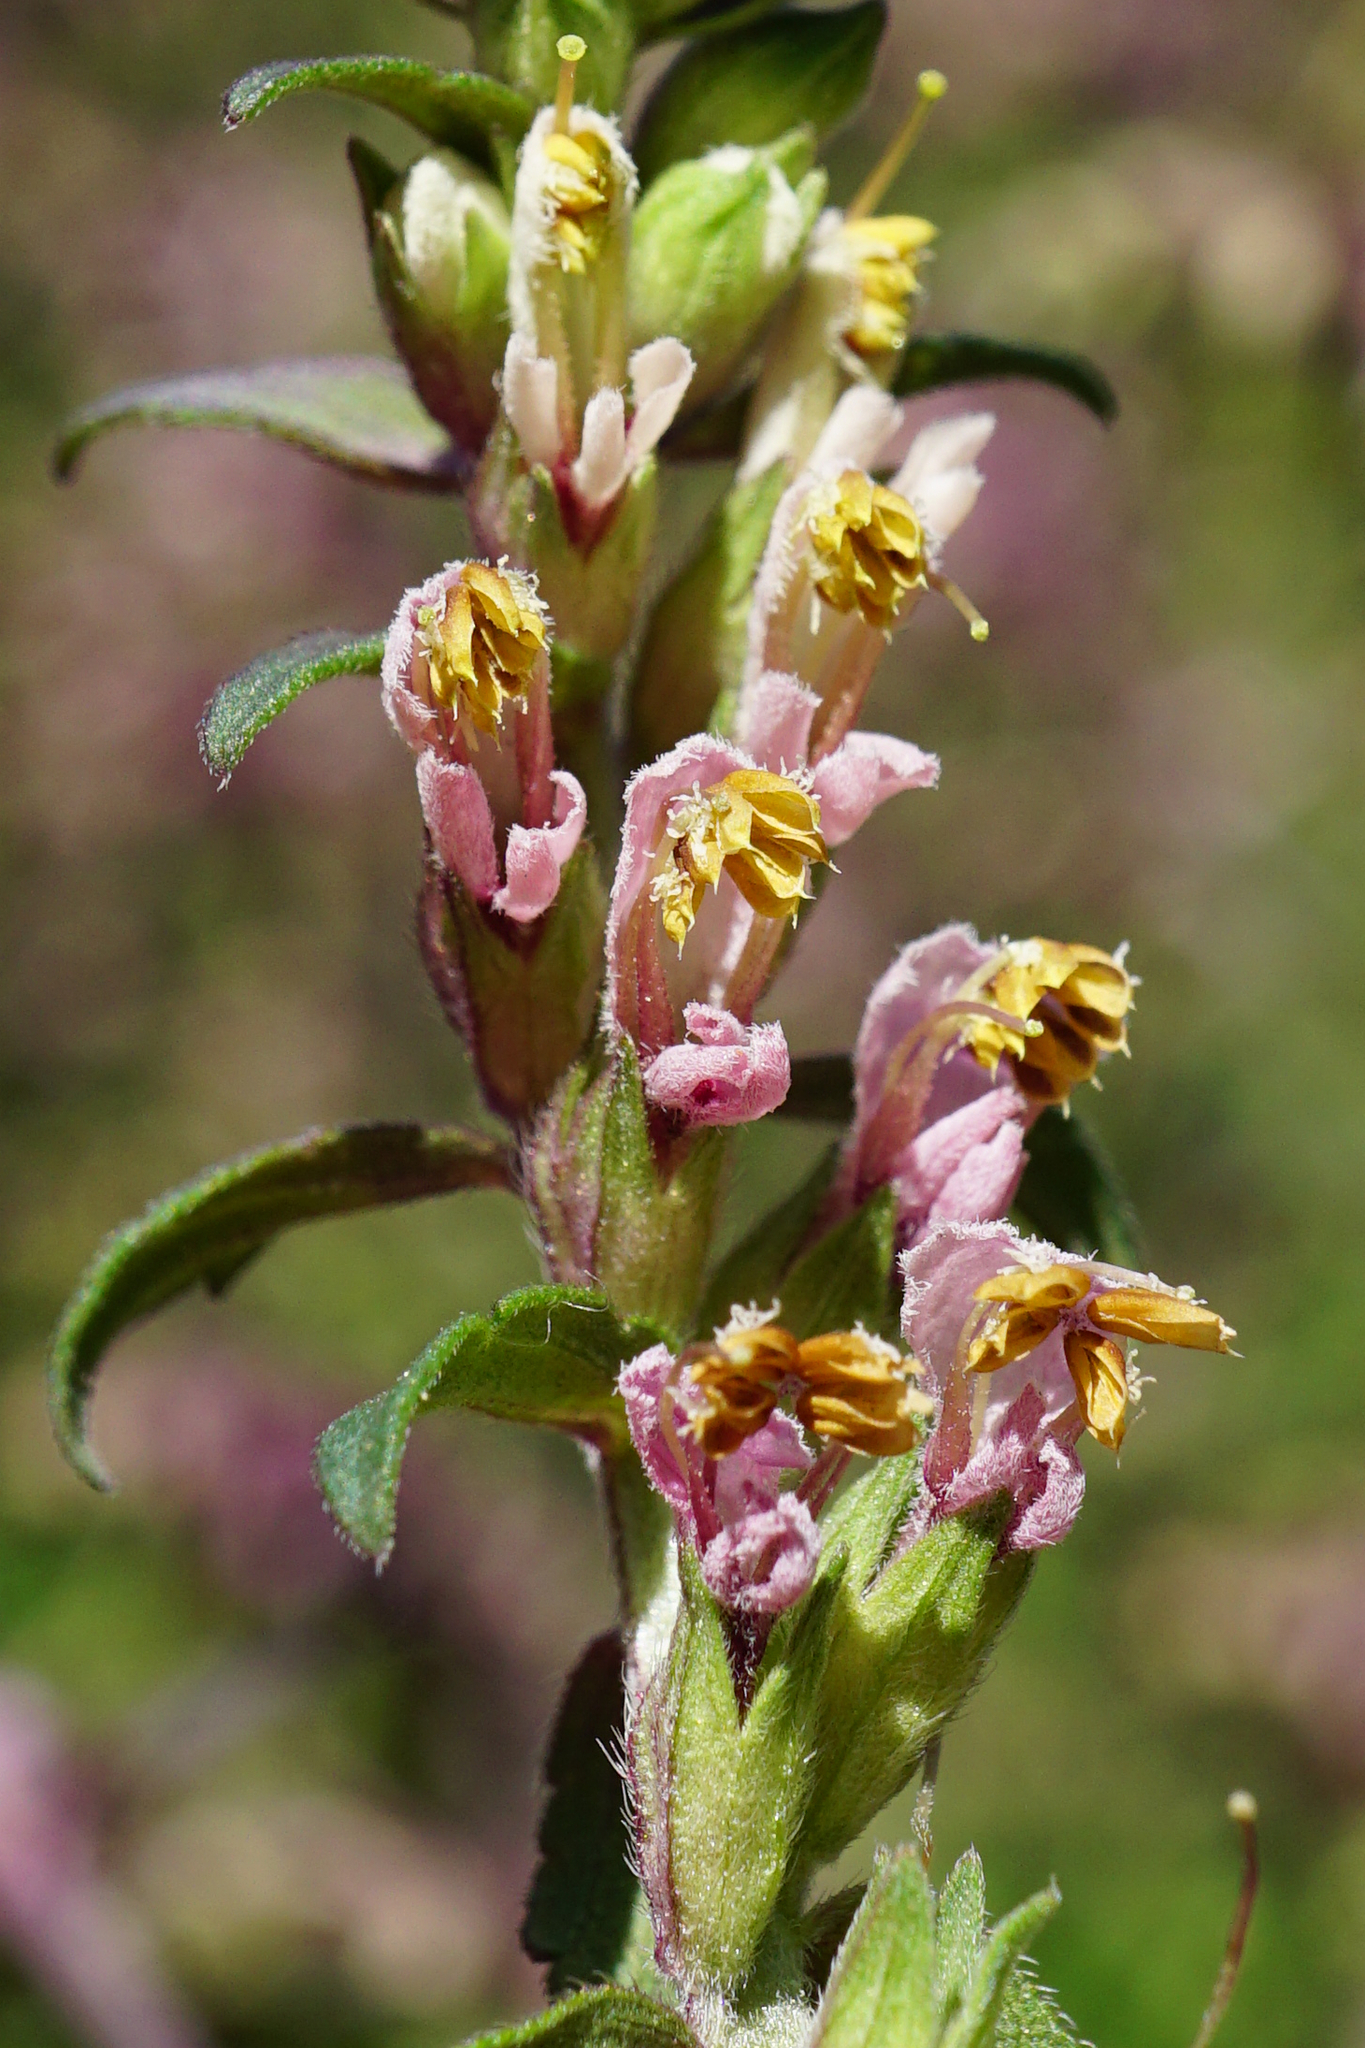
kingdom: Plantae
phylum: Tracheophyta
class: Magnoliopsida
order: Lamiales
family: Orobanchaceae
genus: Odontites
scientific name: Odontites vulgaris
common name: Broomrape
